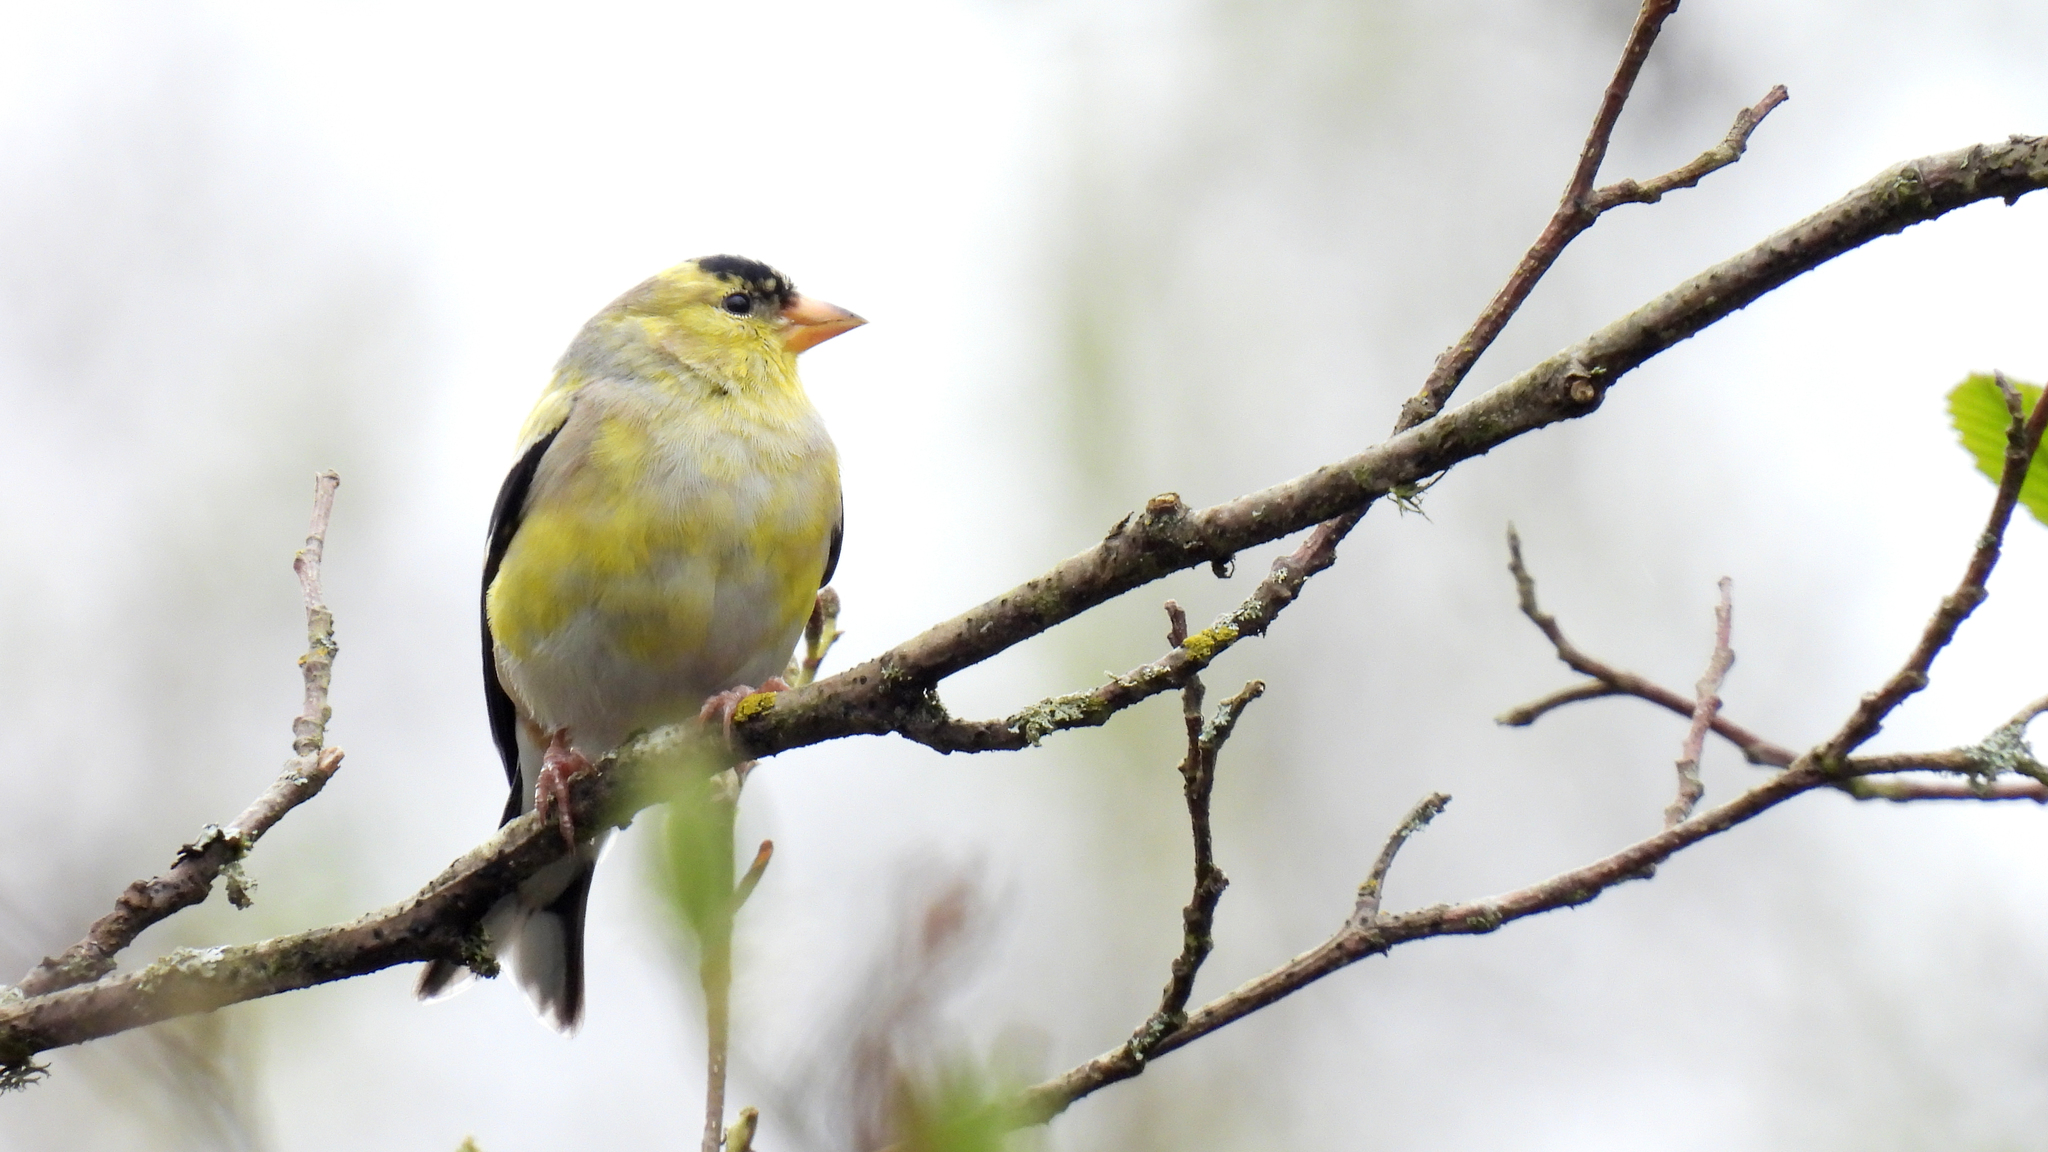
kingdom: Animalia
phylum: Chordata
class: Aves
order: Passeriformes
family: Fringillidae
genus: Spinus
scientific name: Spinus tristis
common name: American goldfinch
